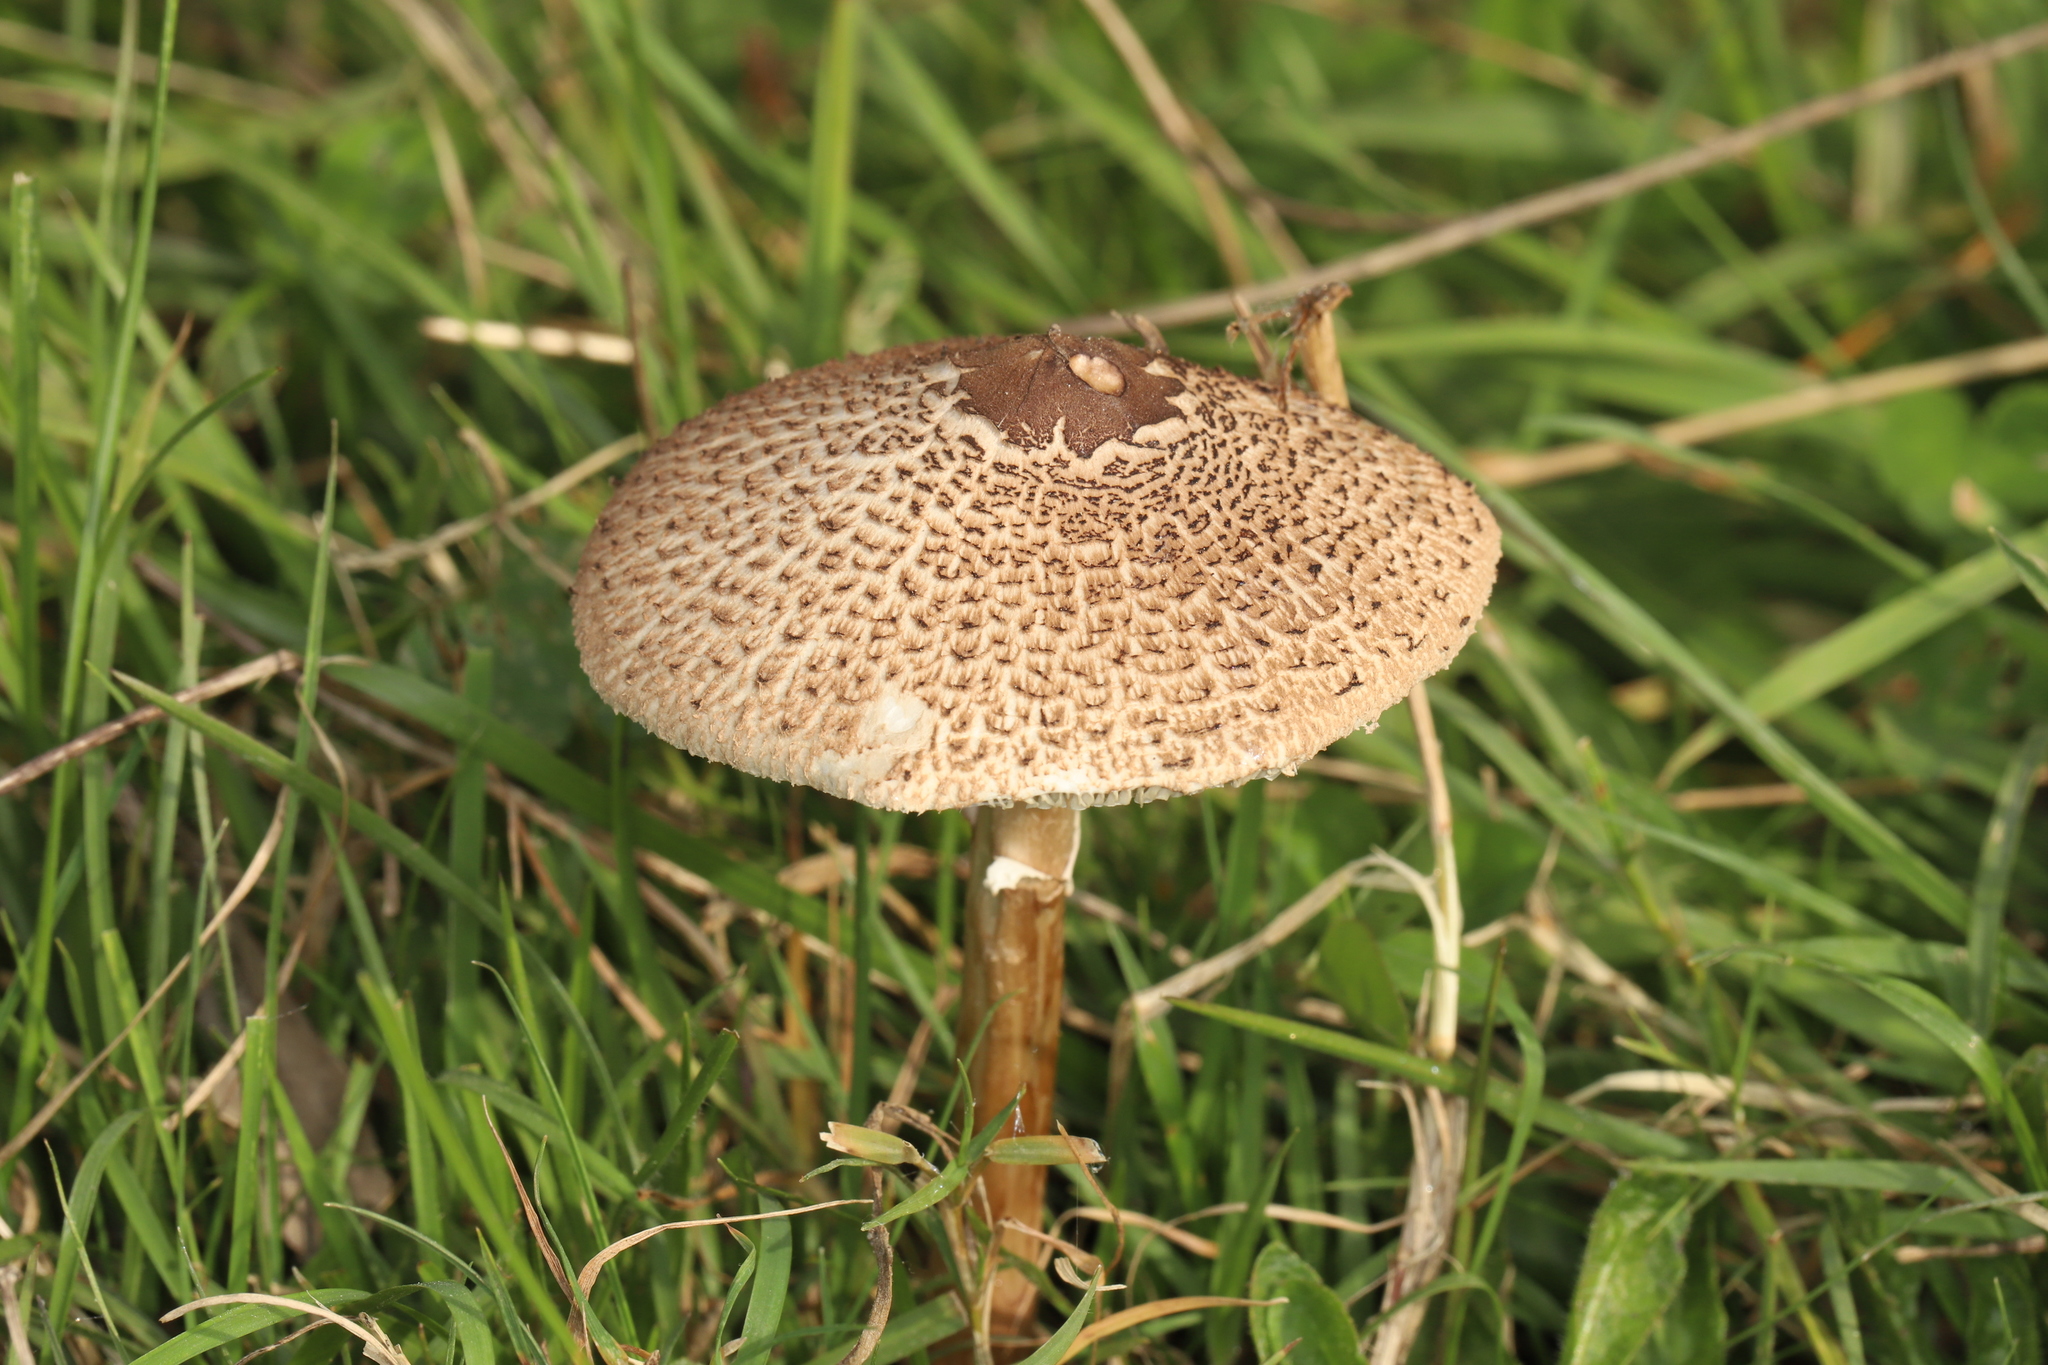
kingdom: Fungi
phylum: Basidiomycota
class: Agaricomycetes
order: Agaricales
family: Agaricaceae
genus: Macrolepiota
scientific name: Macrolepiota clelandii
